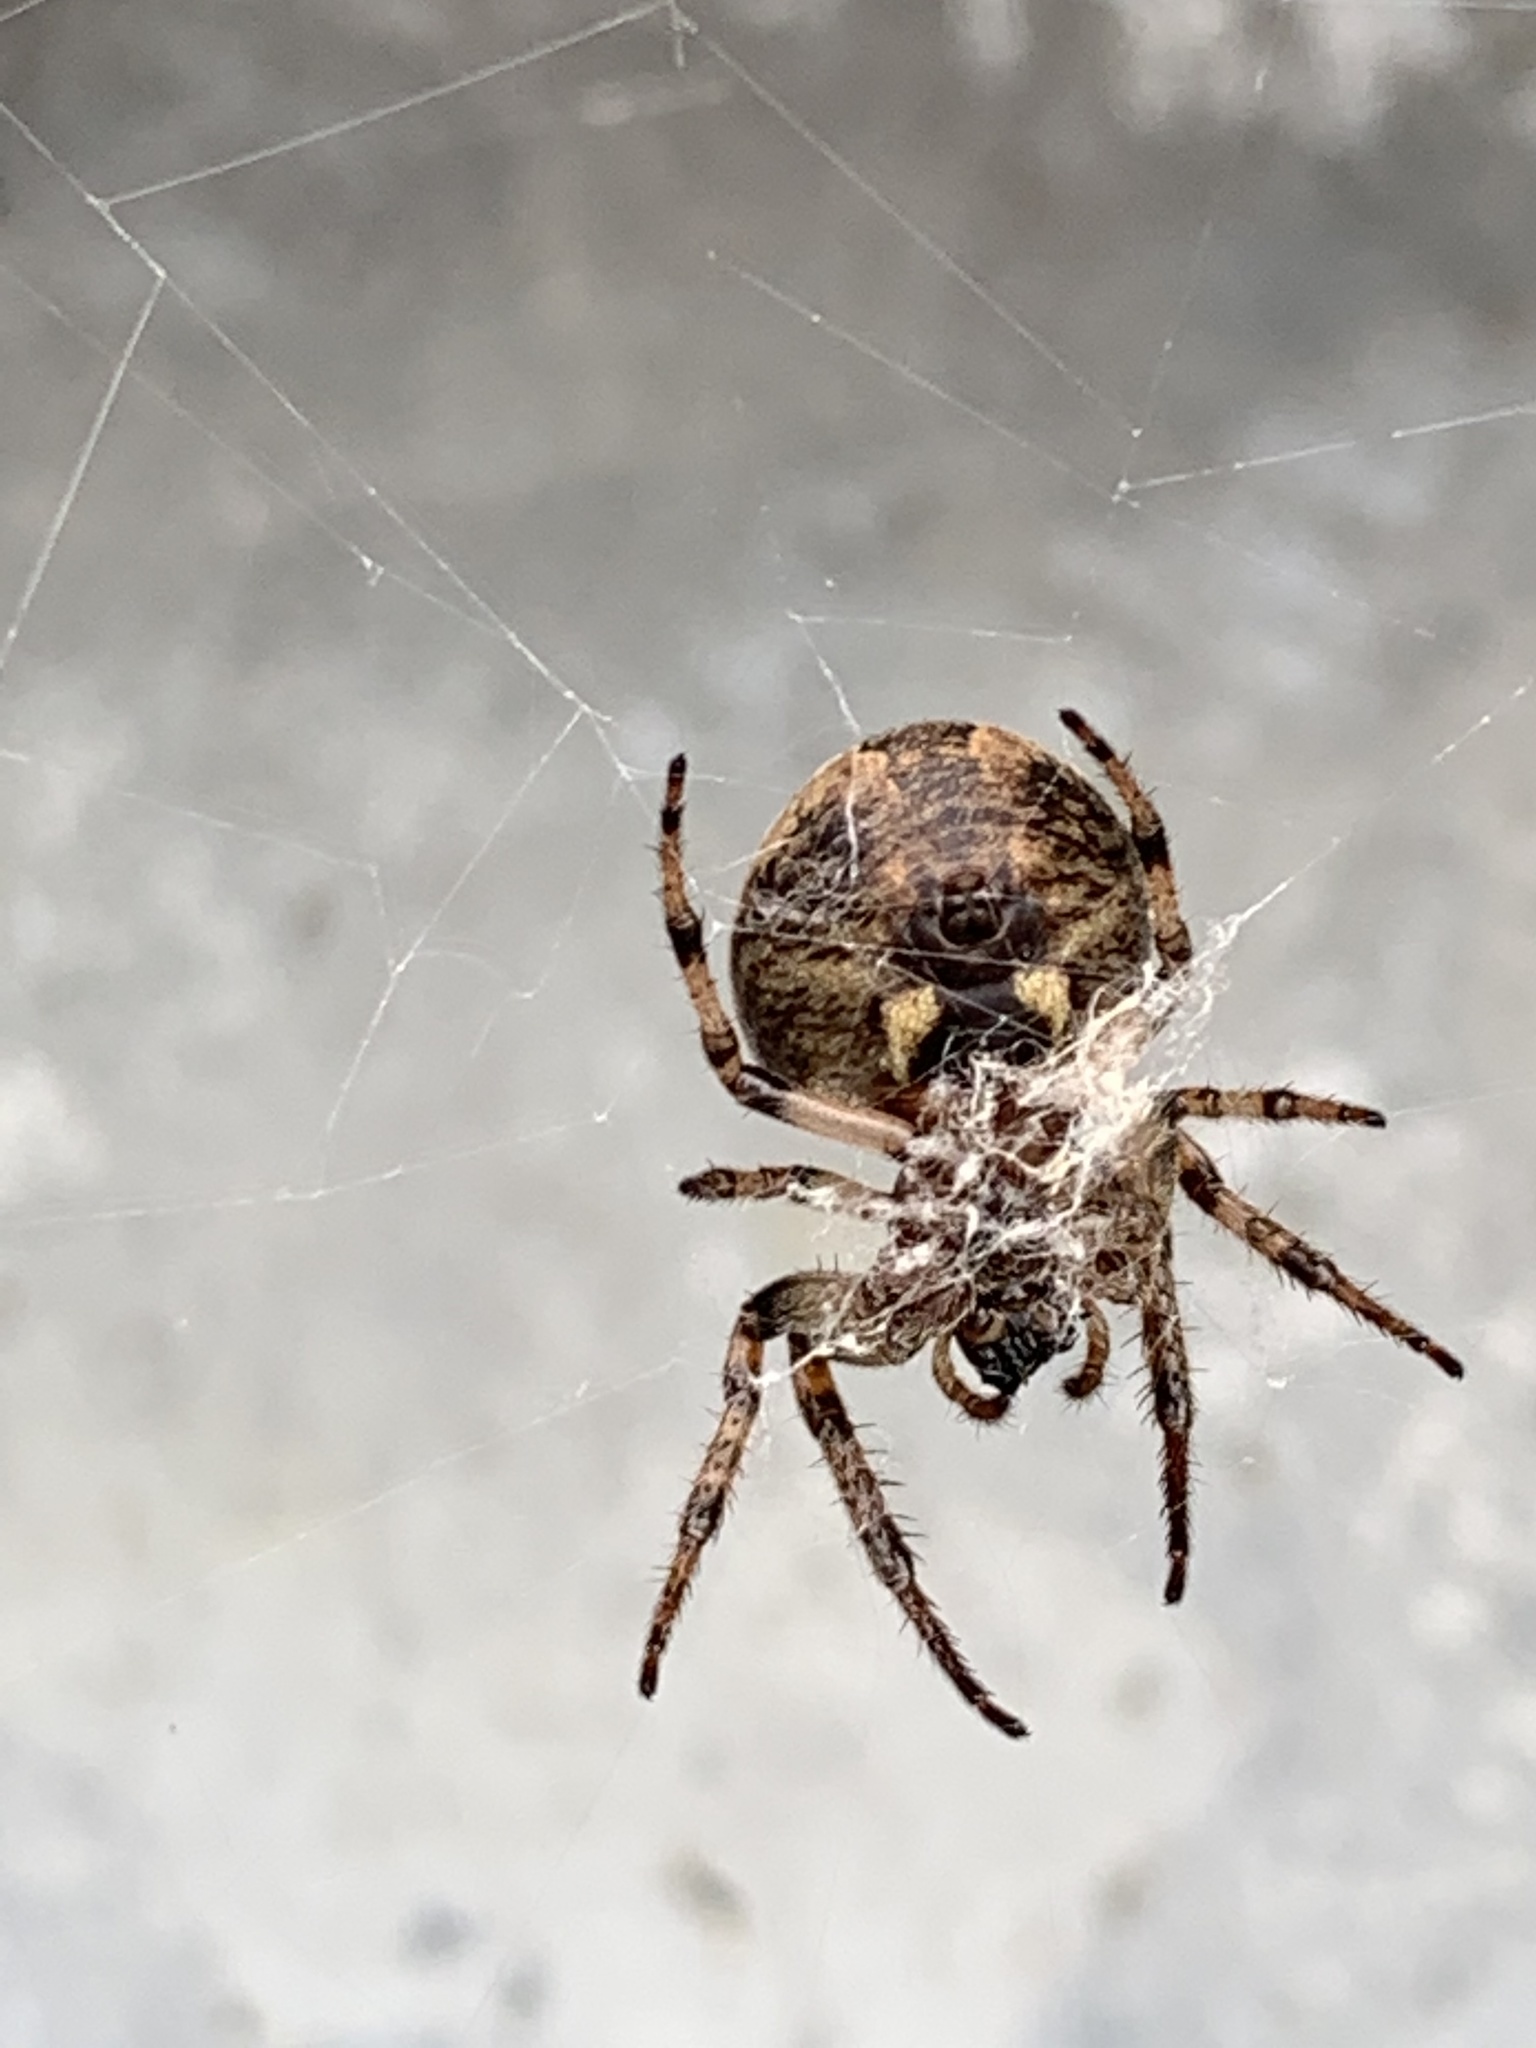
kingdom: Animalia
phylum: Arthropoda
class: Arachnida
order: Araneae
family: Araneidae
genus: Larinioides
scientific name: Larinioides cornutus
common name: Furrow orbweaver
